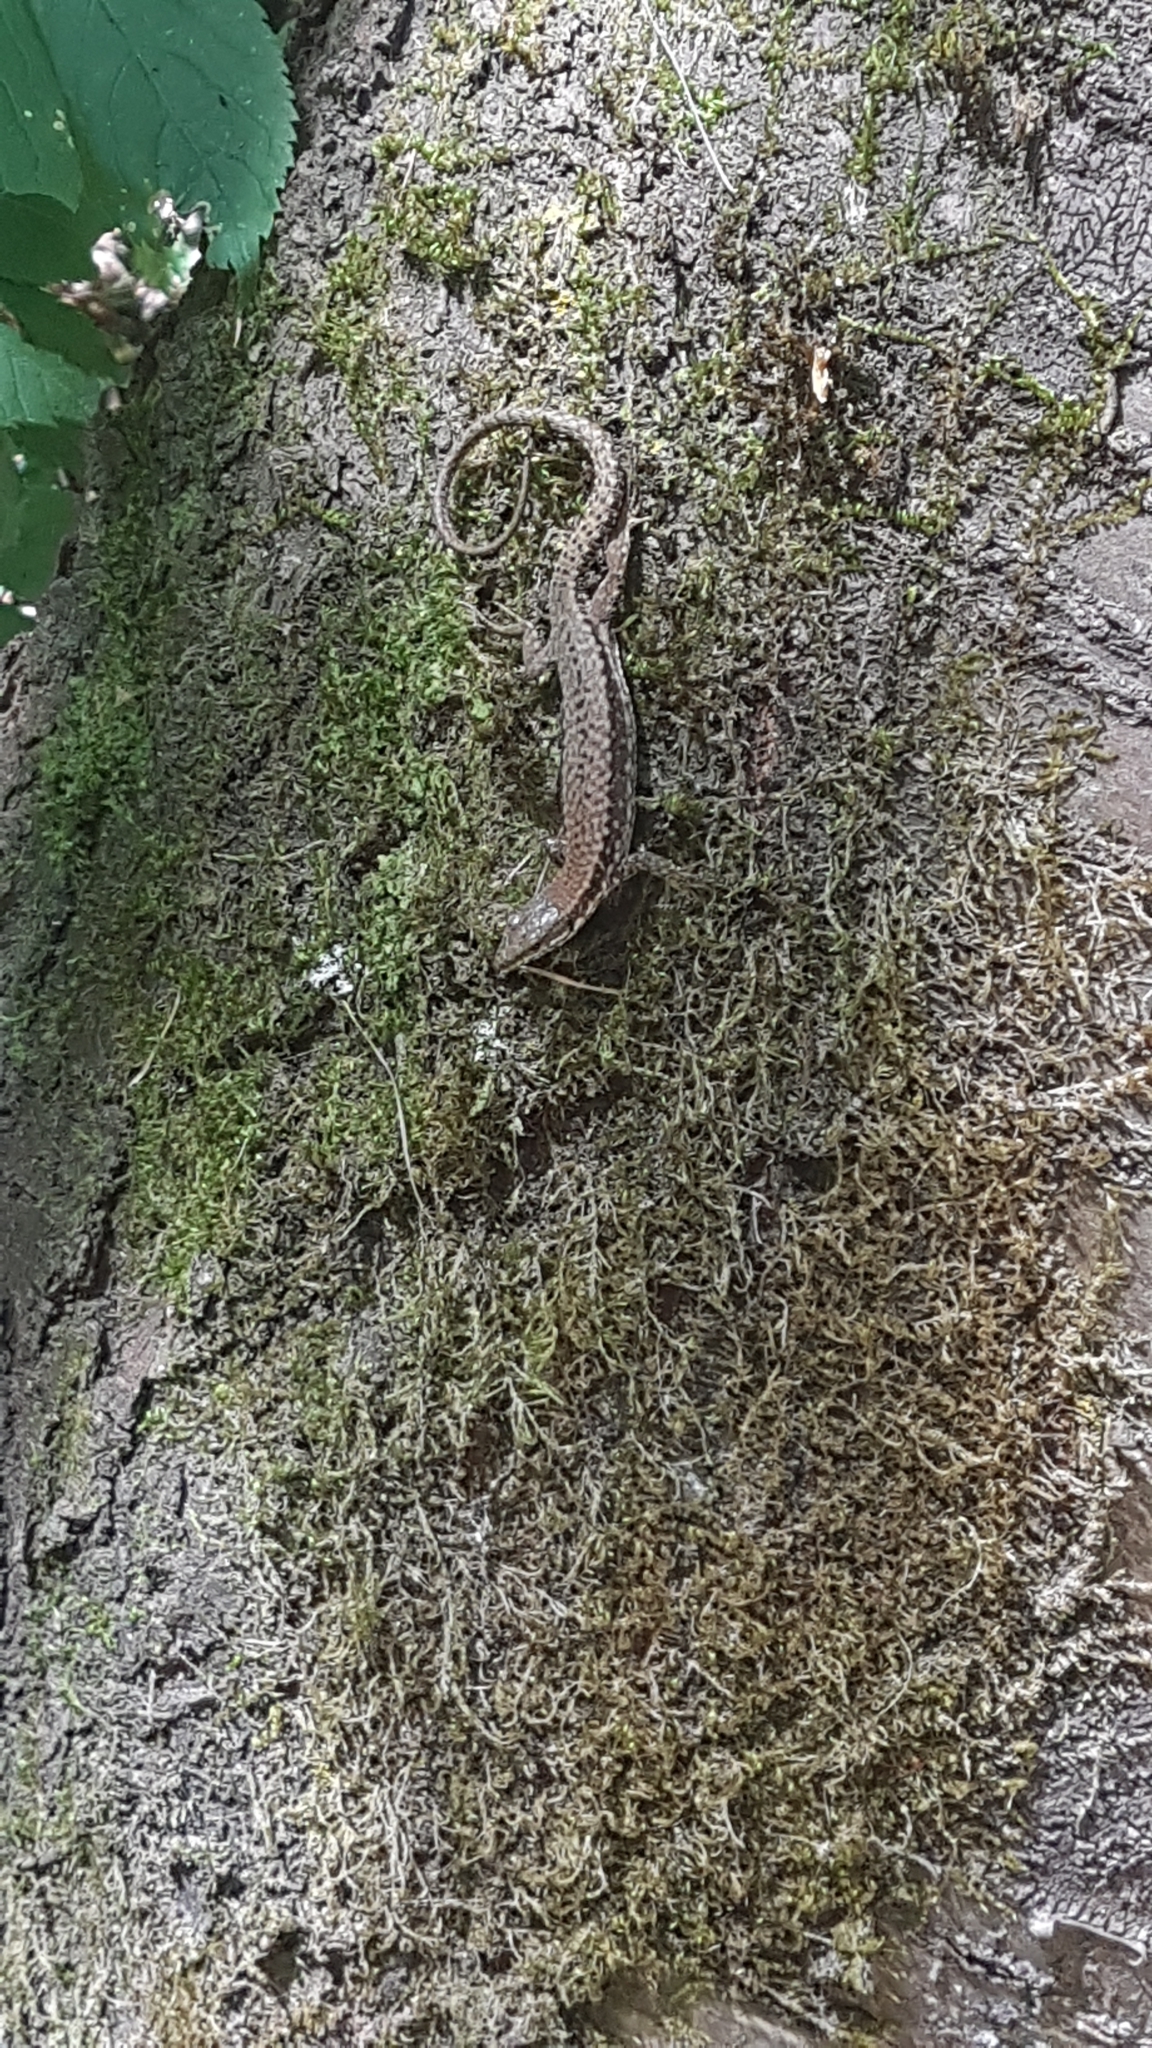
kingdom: Animalia
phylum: Chordata
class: Squamata
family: Lacertidae
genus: Podarcis
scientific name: Podarcis muralis
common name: Common wall lizard
